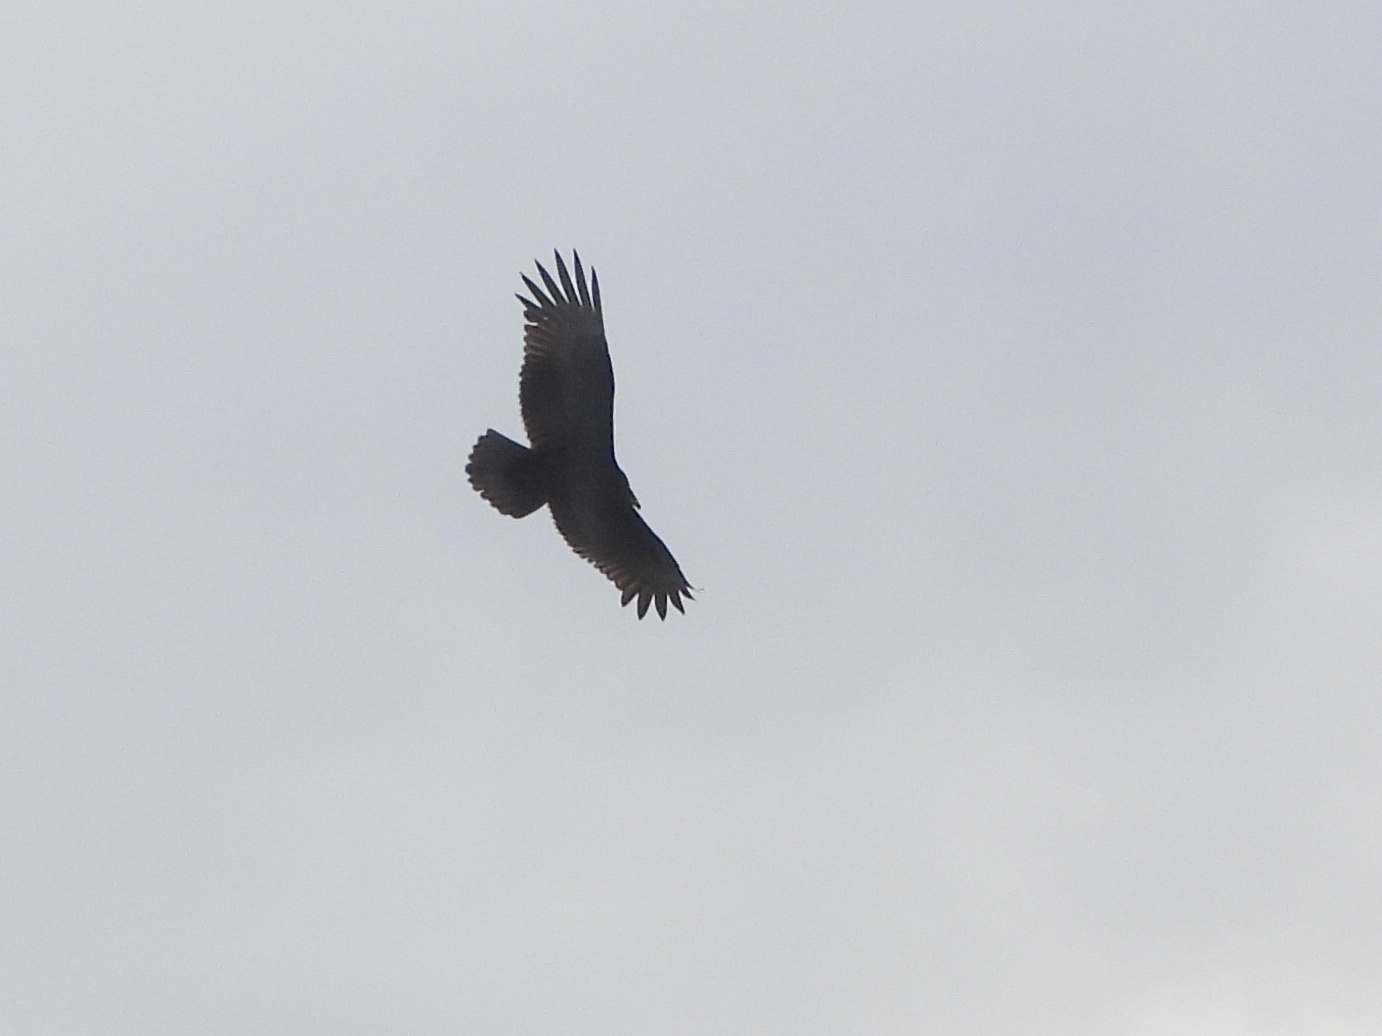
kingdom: Animalia
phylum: Chordata
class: Aves
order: Accipitriformes
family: Cathartidae
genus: Cathartes
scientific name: Cathartes aura
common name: Turkey vulture
